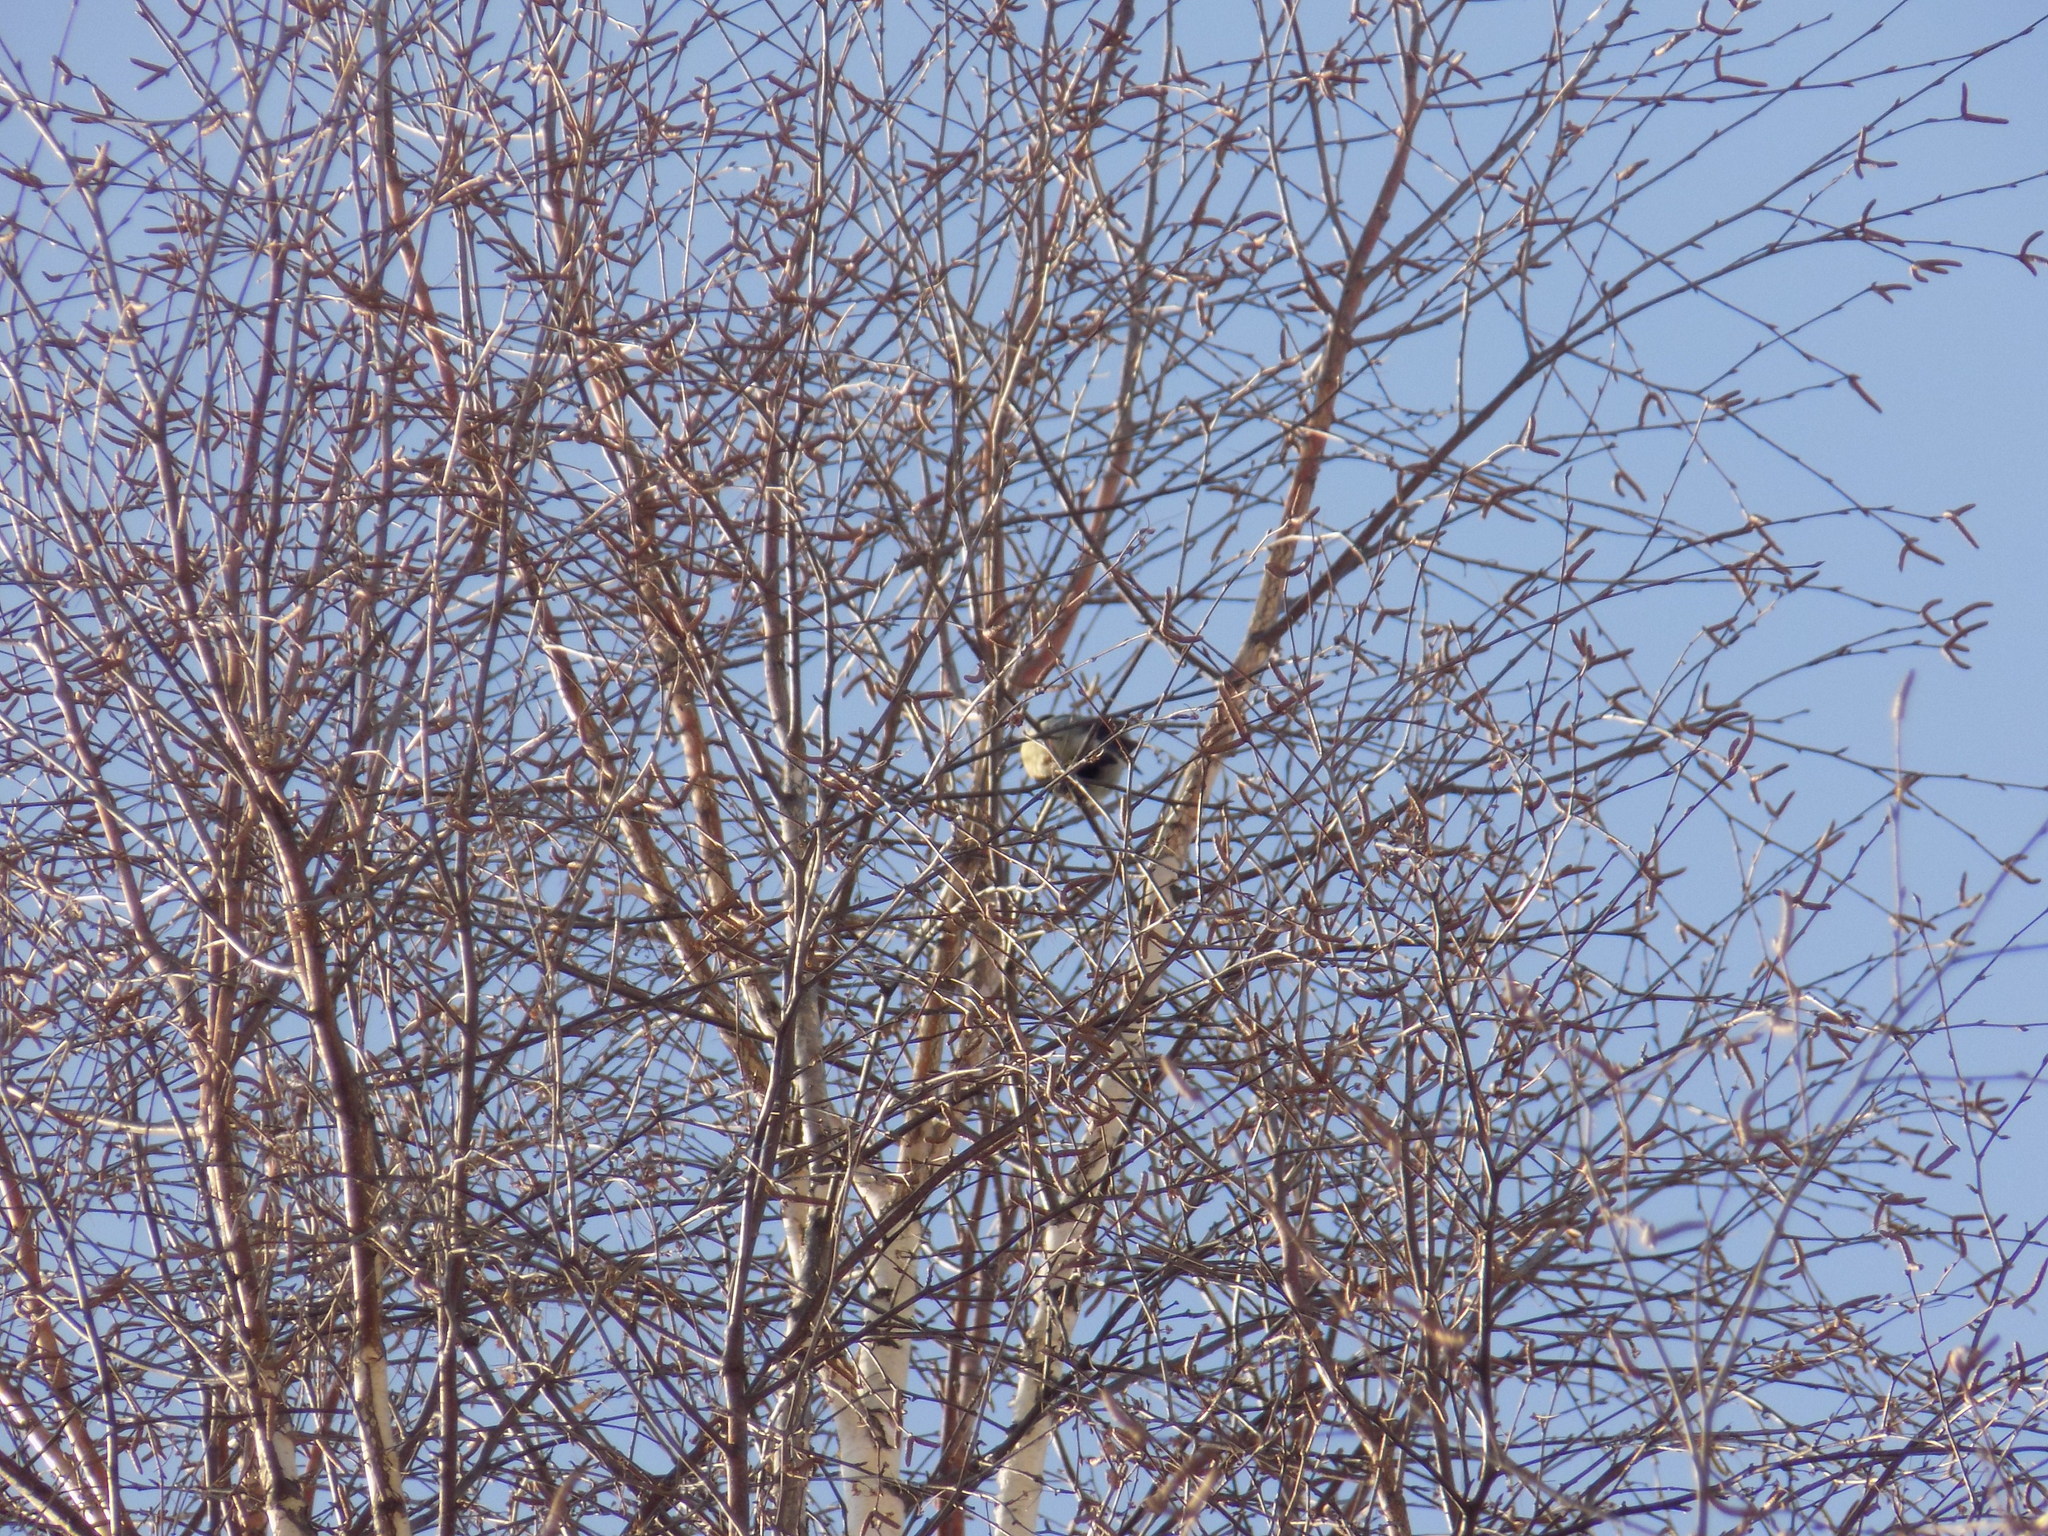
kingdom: Animalia
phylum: Chordata
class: Aves
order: Passeriformes
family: Paridae
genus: Parus
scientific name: Parus major
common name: Great tit
